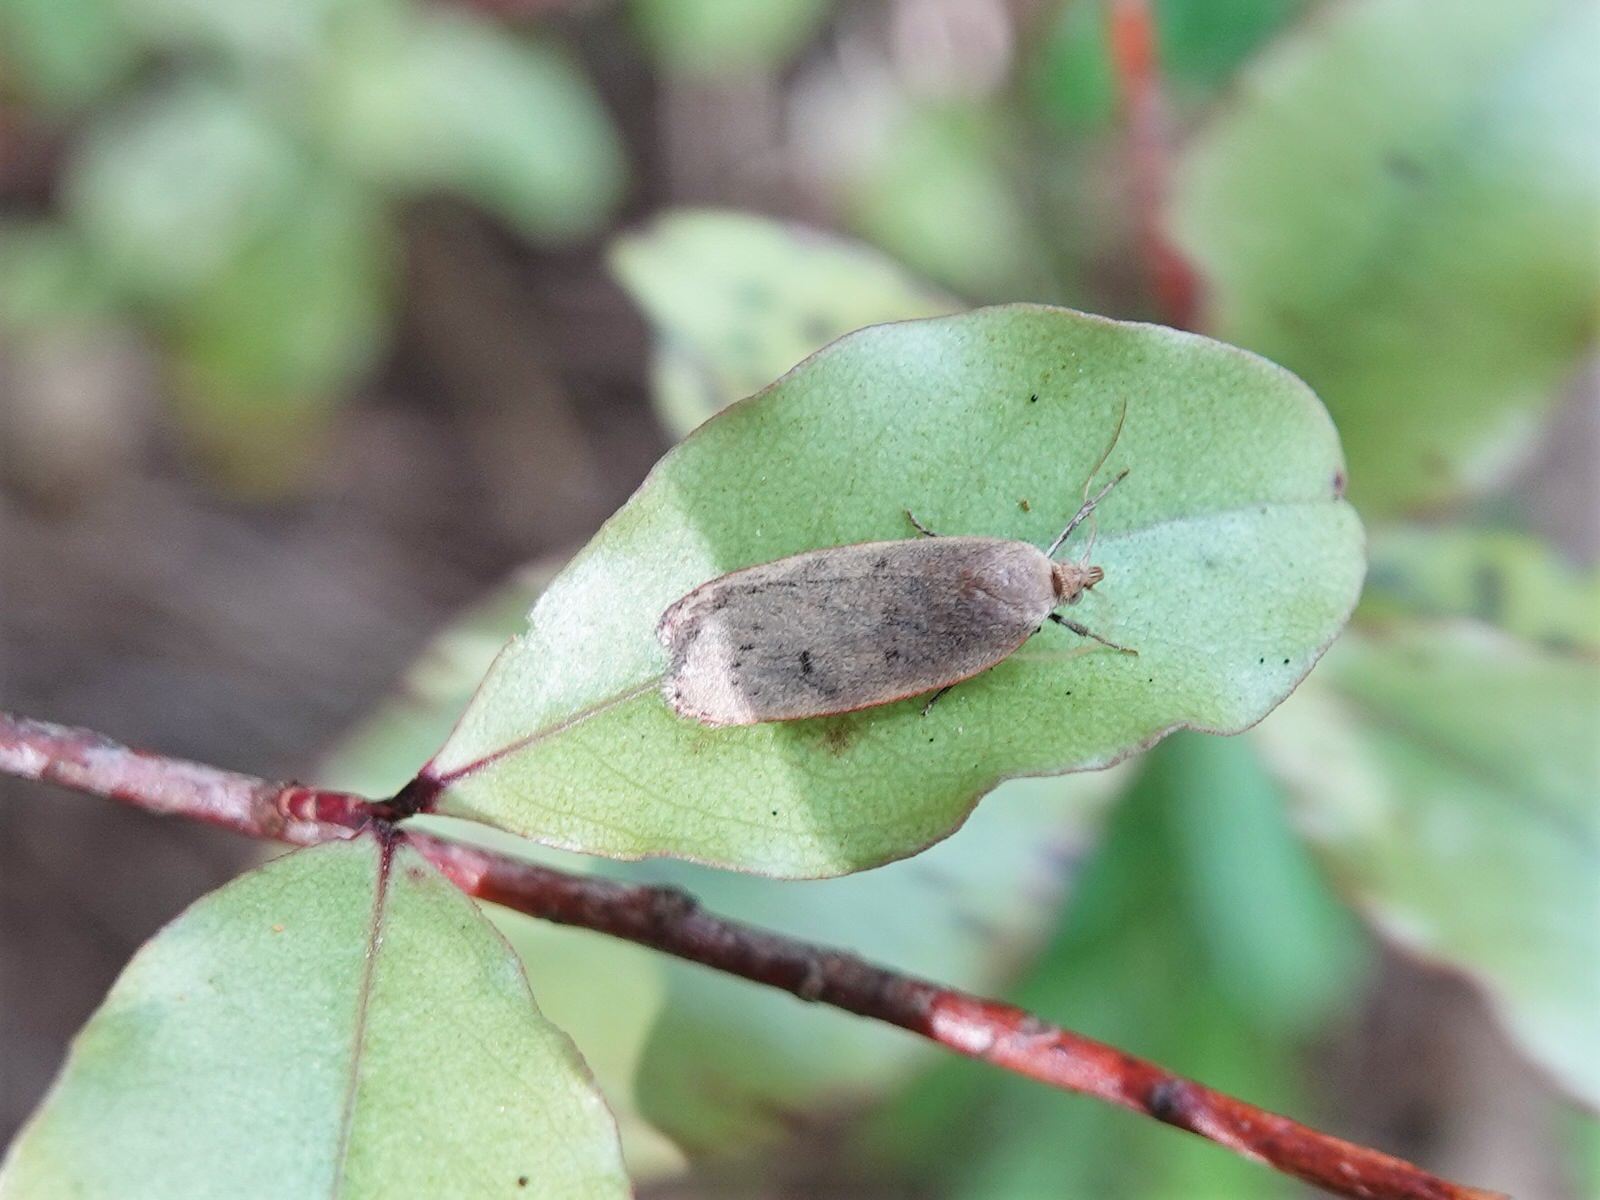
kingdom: Animalia
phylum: Arthropoda
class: Insecta
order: Lepidoptera
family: Depressariidae
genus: Phaeosaces
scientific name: Phaeosaces coarctatella
